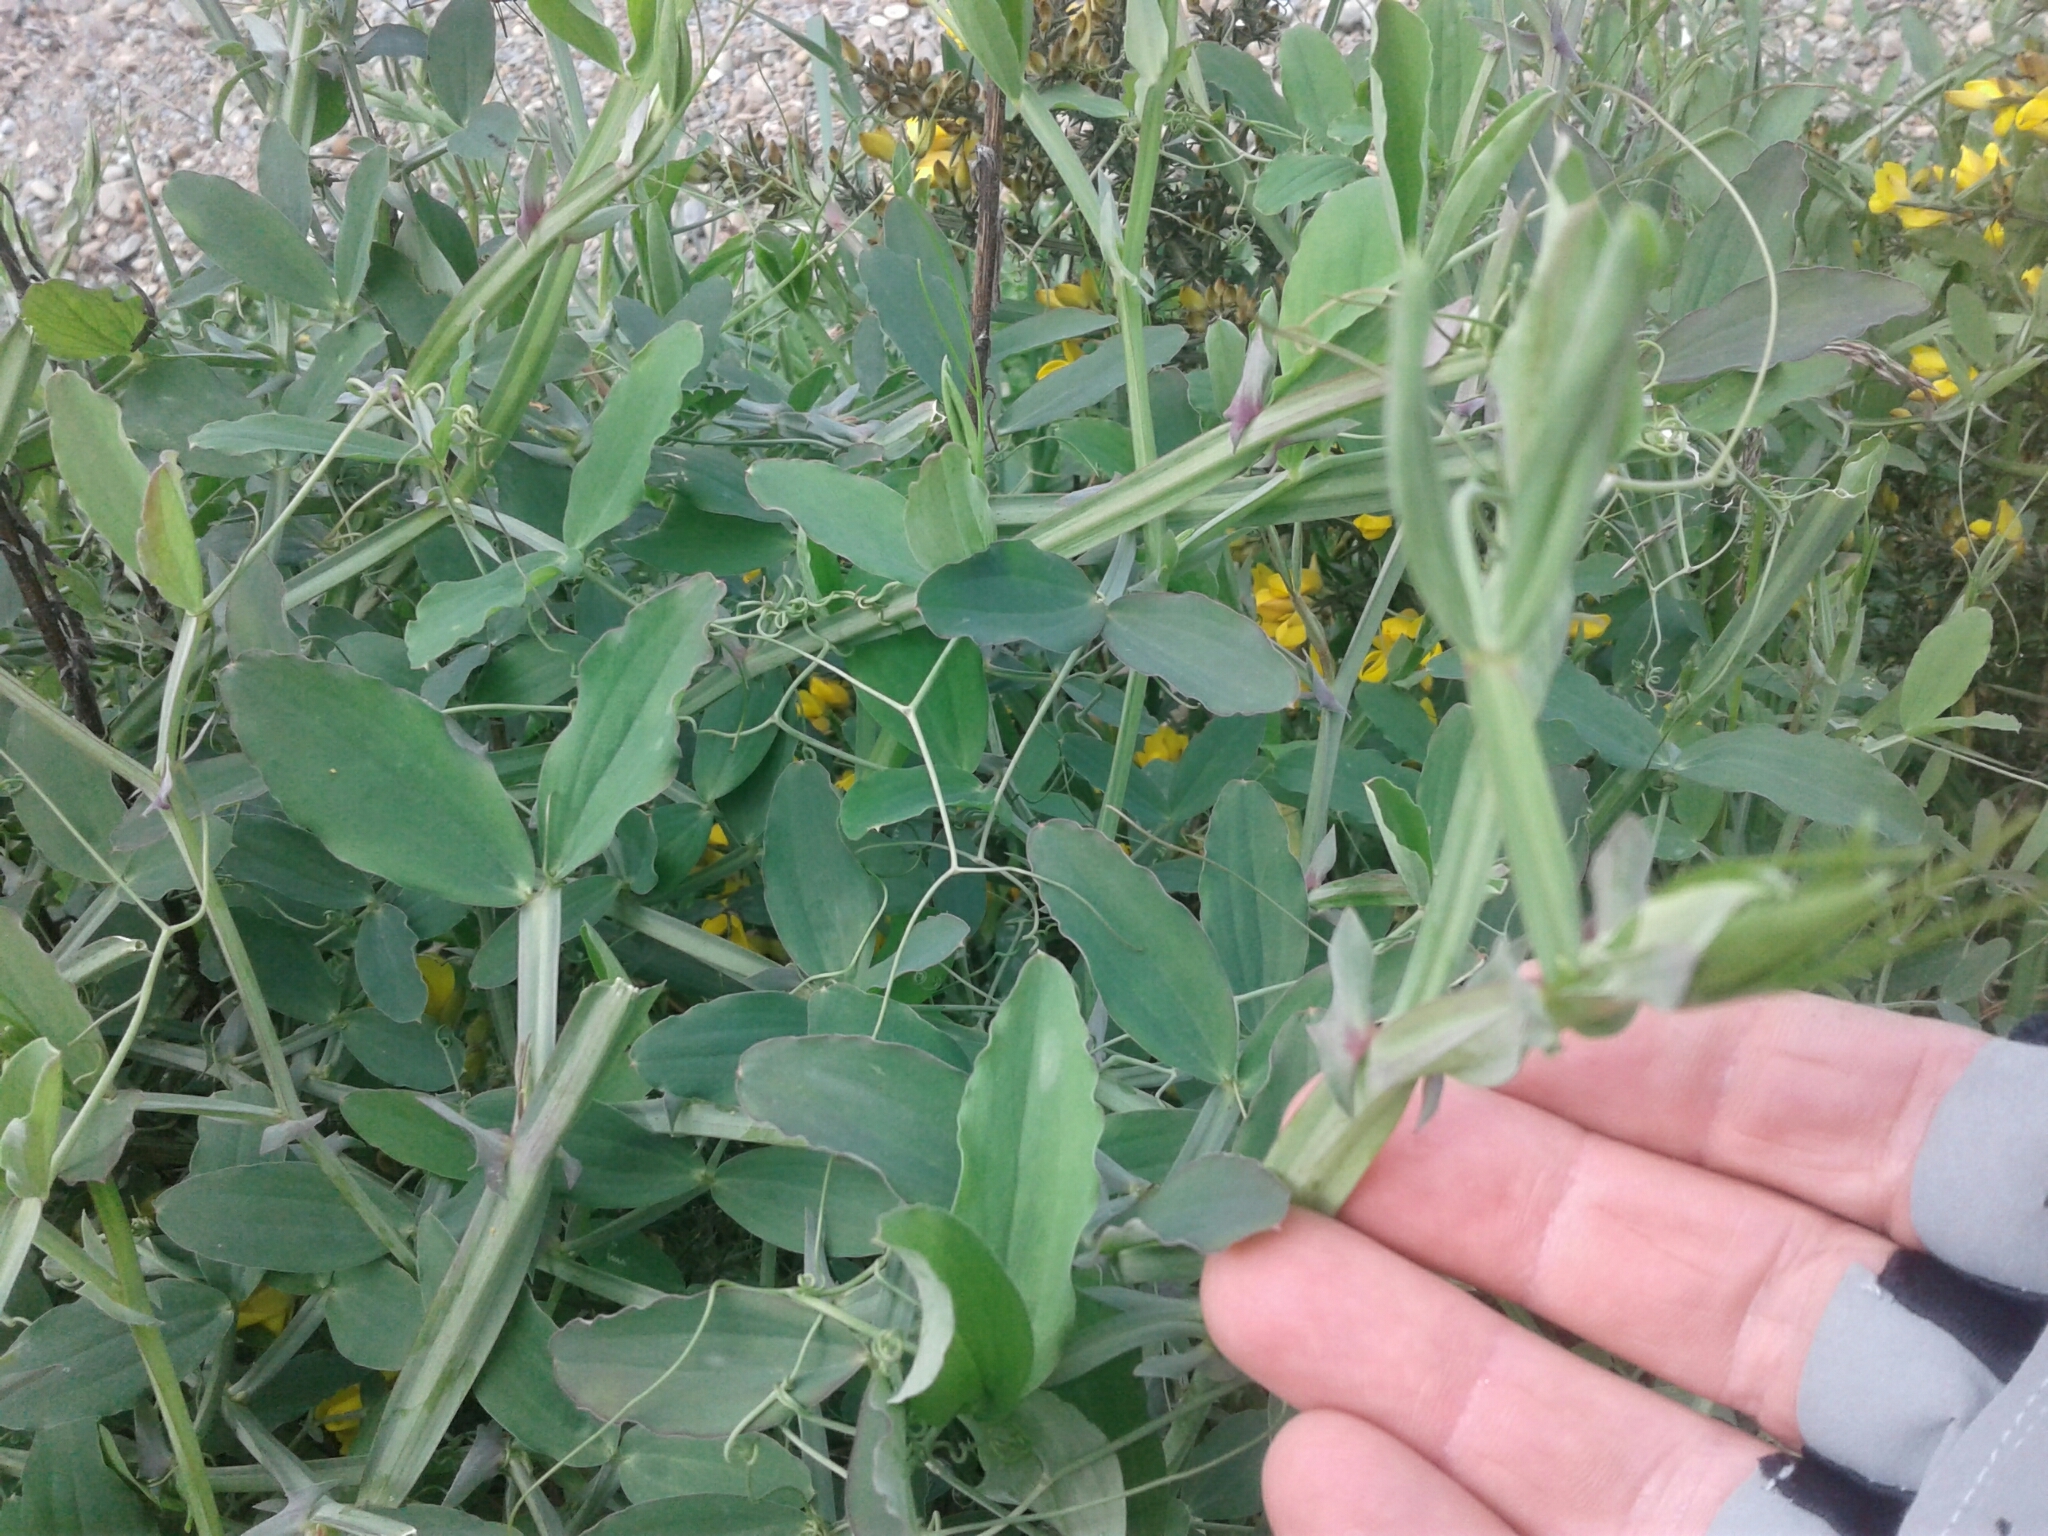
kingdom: Plantae
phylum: Tracheophyta
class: Magnoliopsida
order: Fabales
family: Fabaceae
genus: Lathyrus
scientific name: Lathyrus latifolius
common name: Perennial pea
